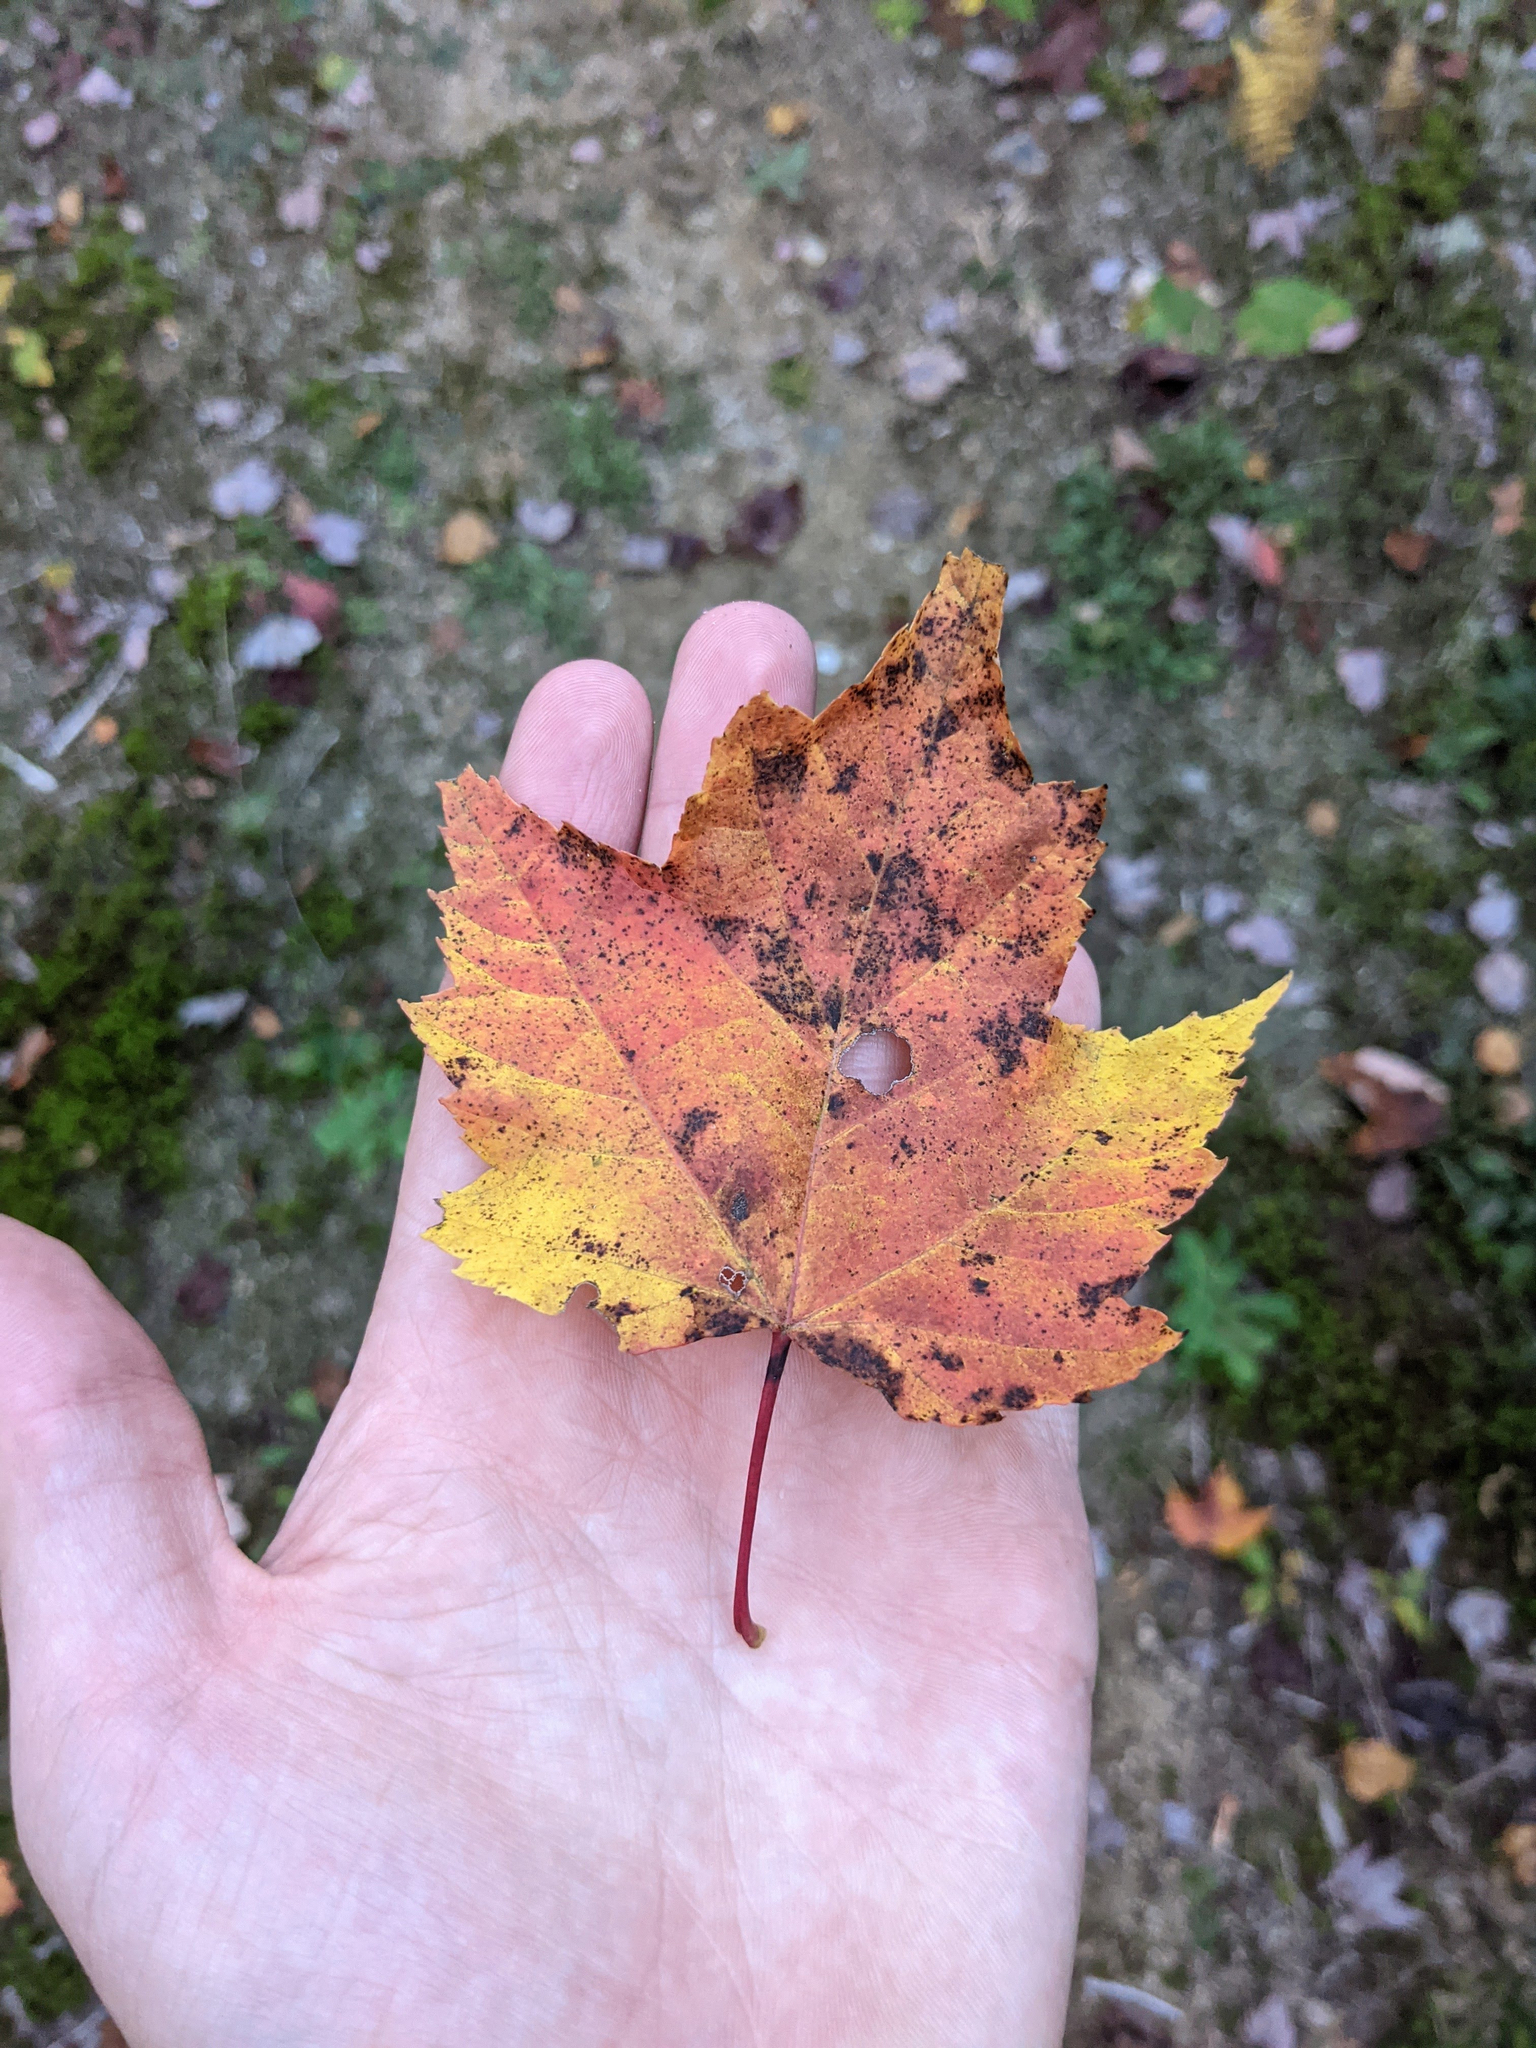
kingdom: Plantae
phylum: Tracheophyta
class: Magnoliopsida
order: Sapindales
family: Sapindaceae
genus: Acer
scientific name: Acer rubrum
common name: Red maple
